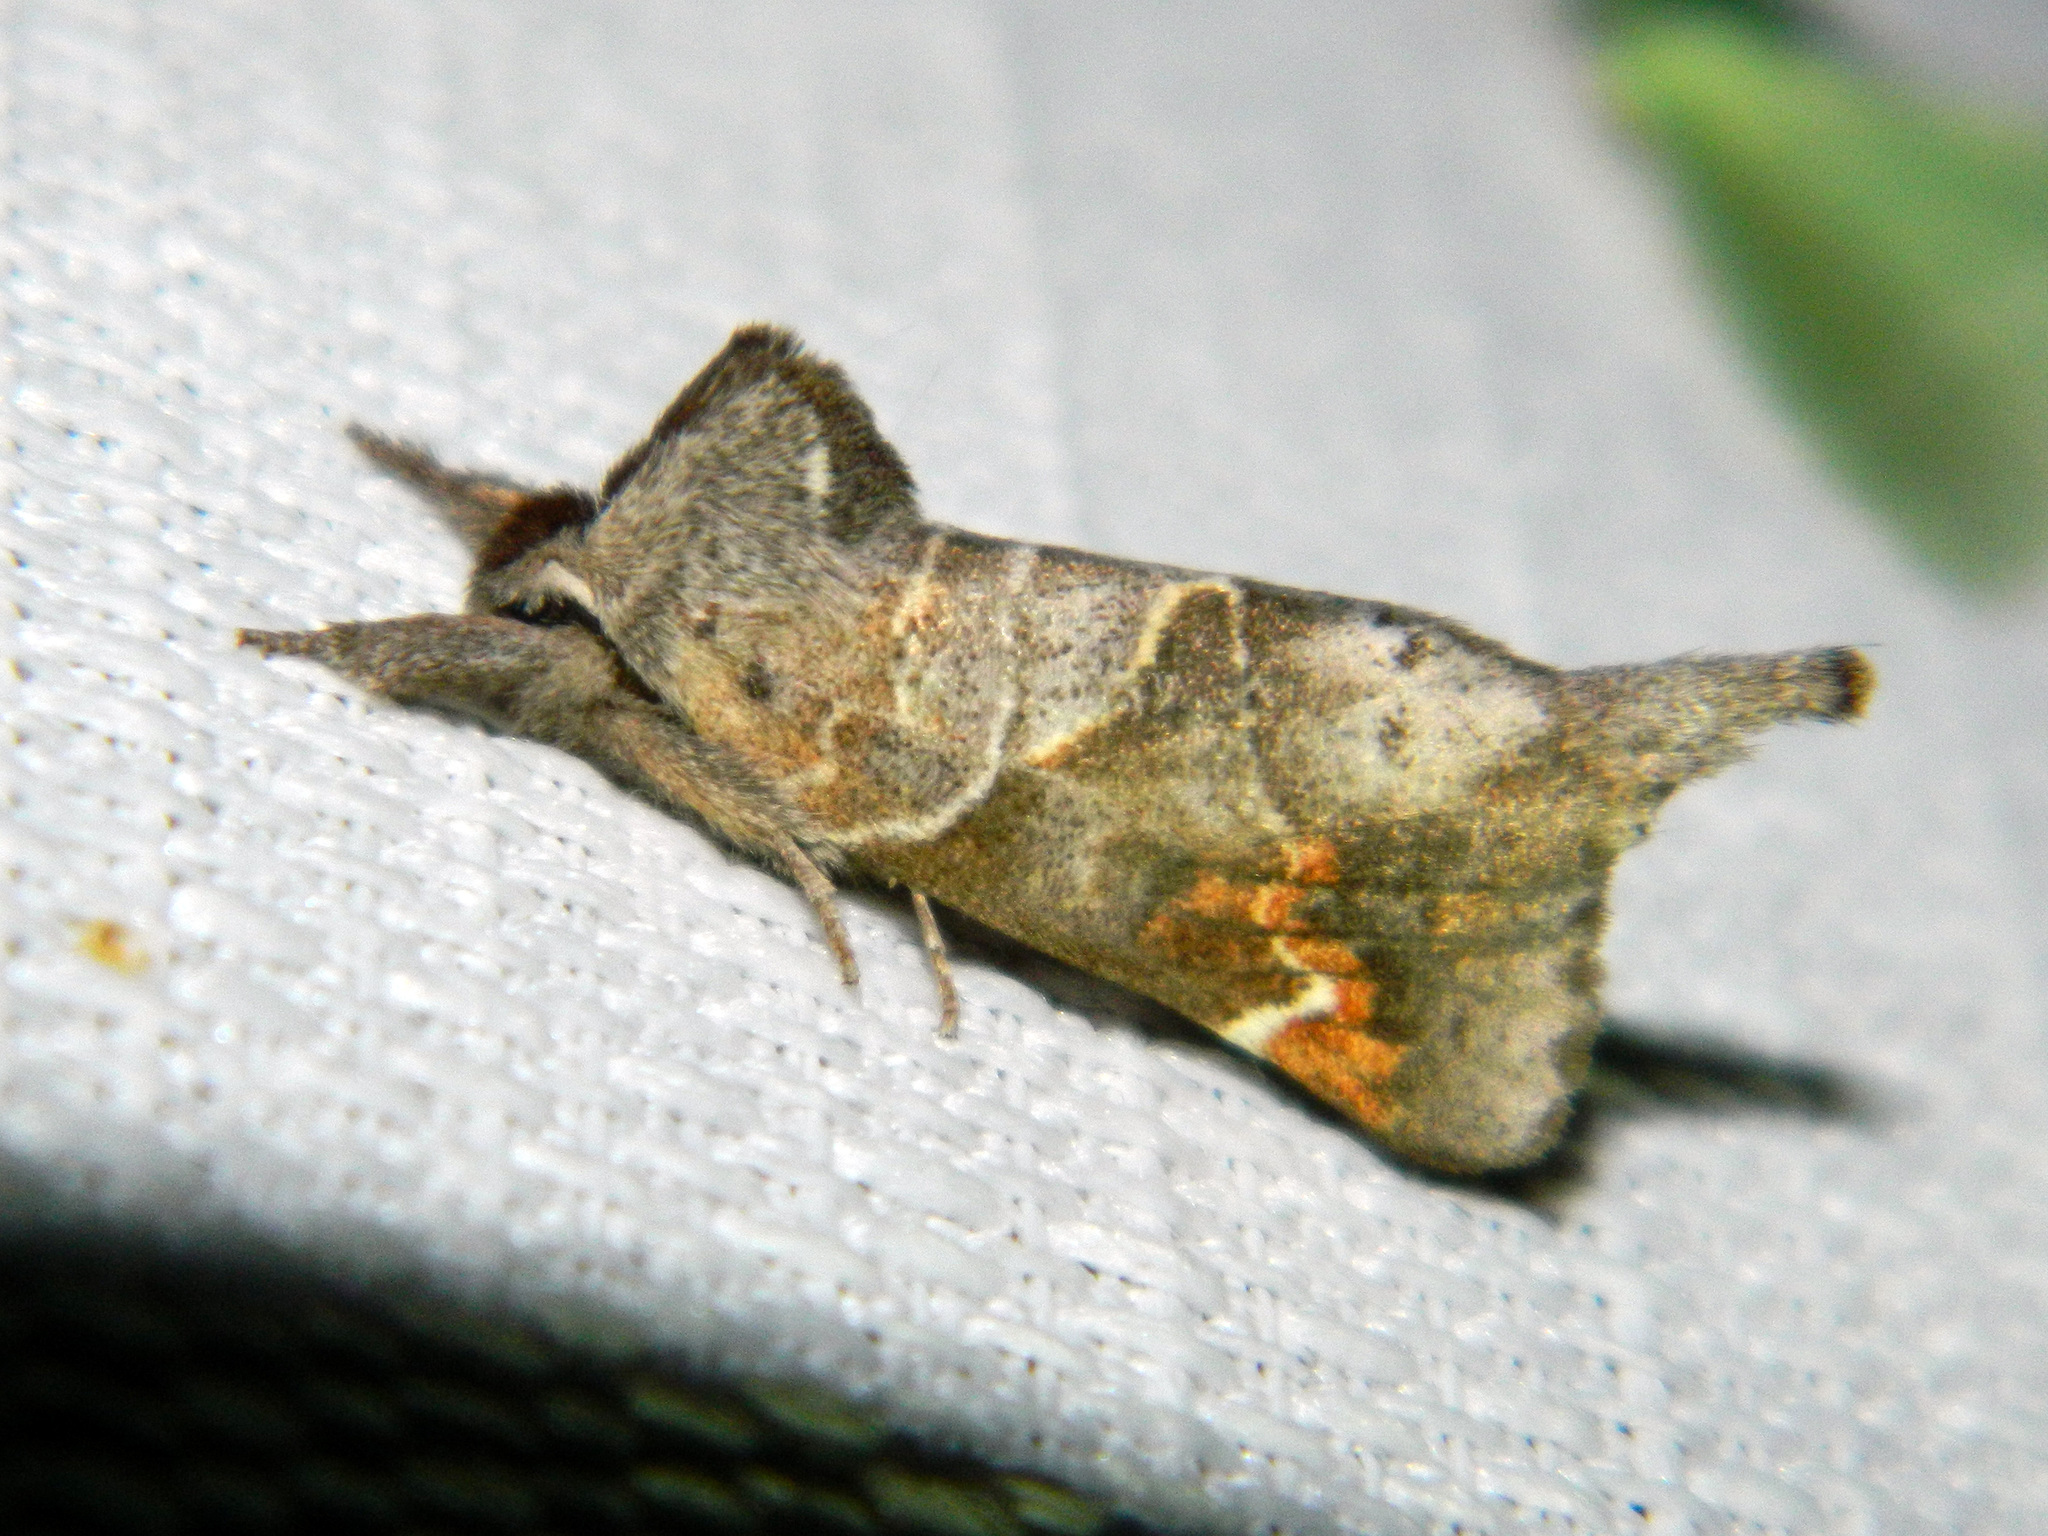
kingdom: Animalia
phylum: Arthropoda
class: Insecta
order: Lepidoptera
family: Notodontidae
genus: Clostera
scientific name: Clostera apicalis
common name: Apical prominent
